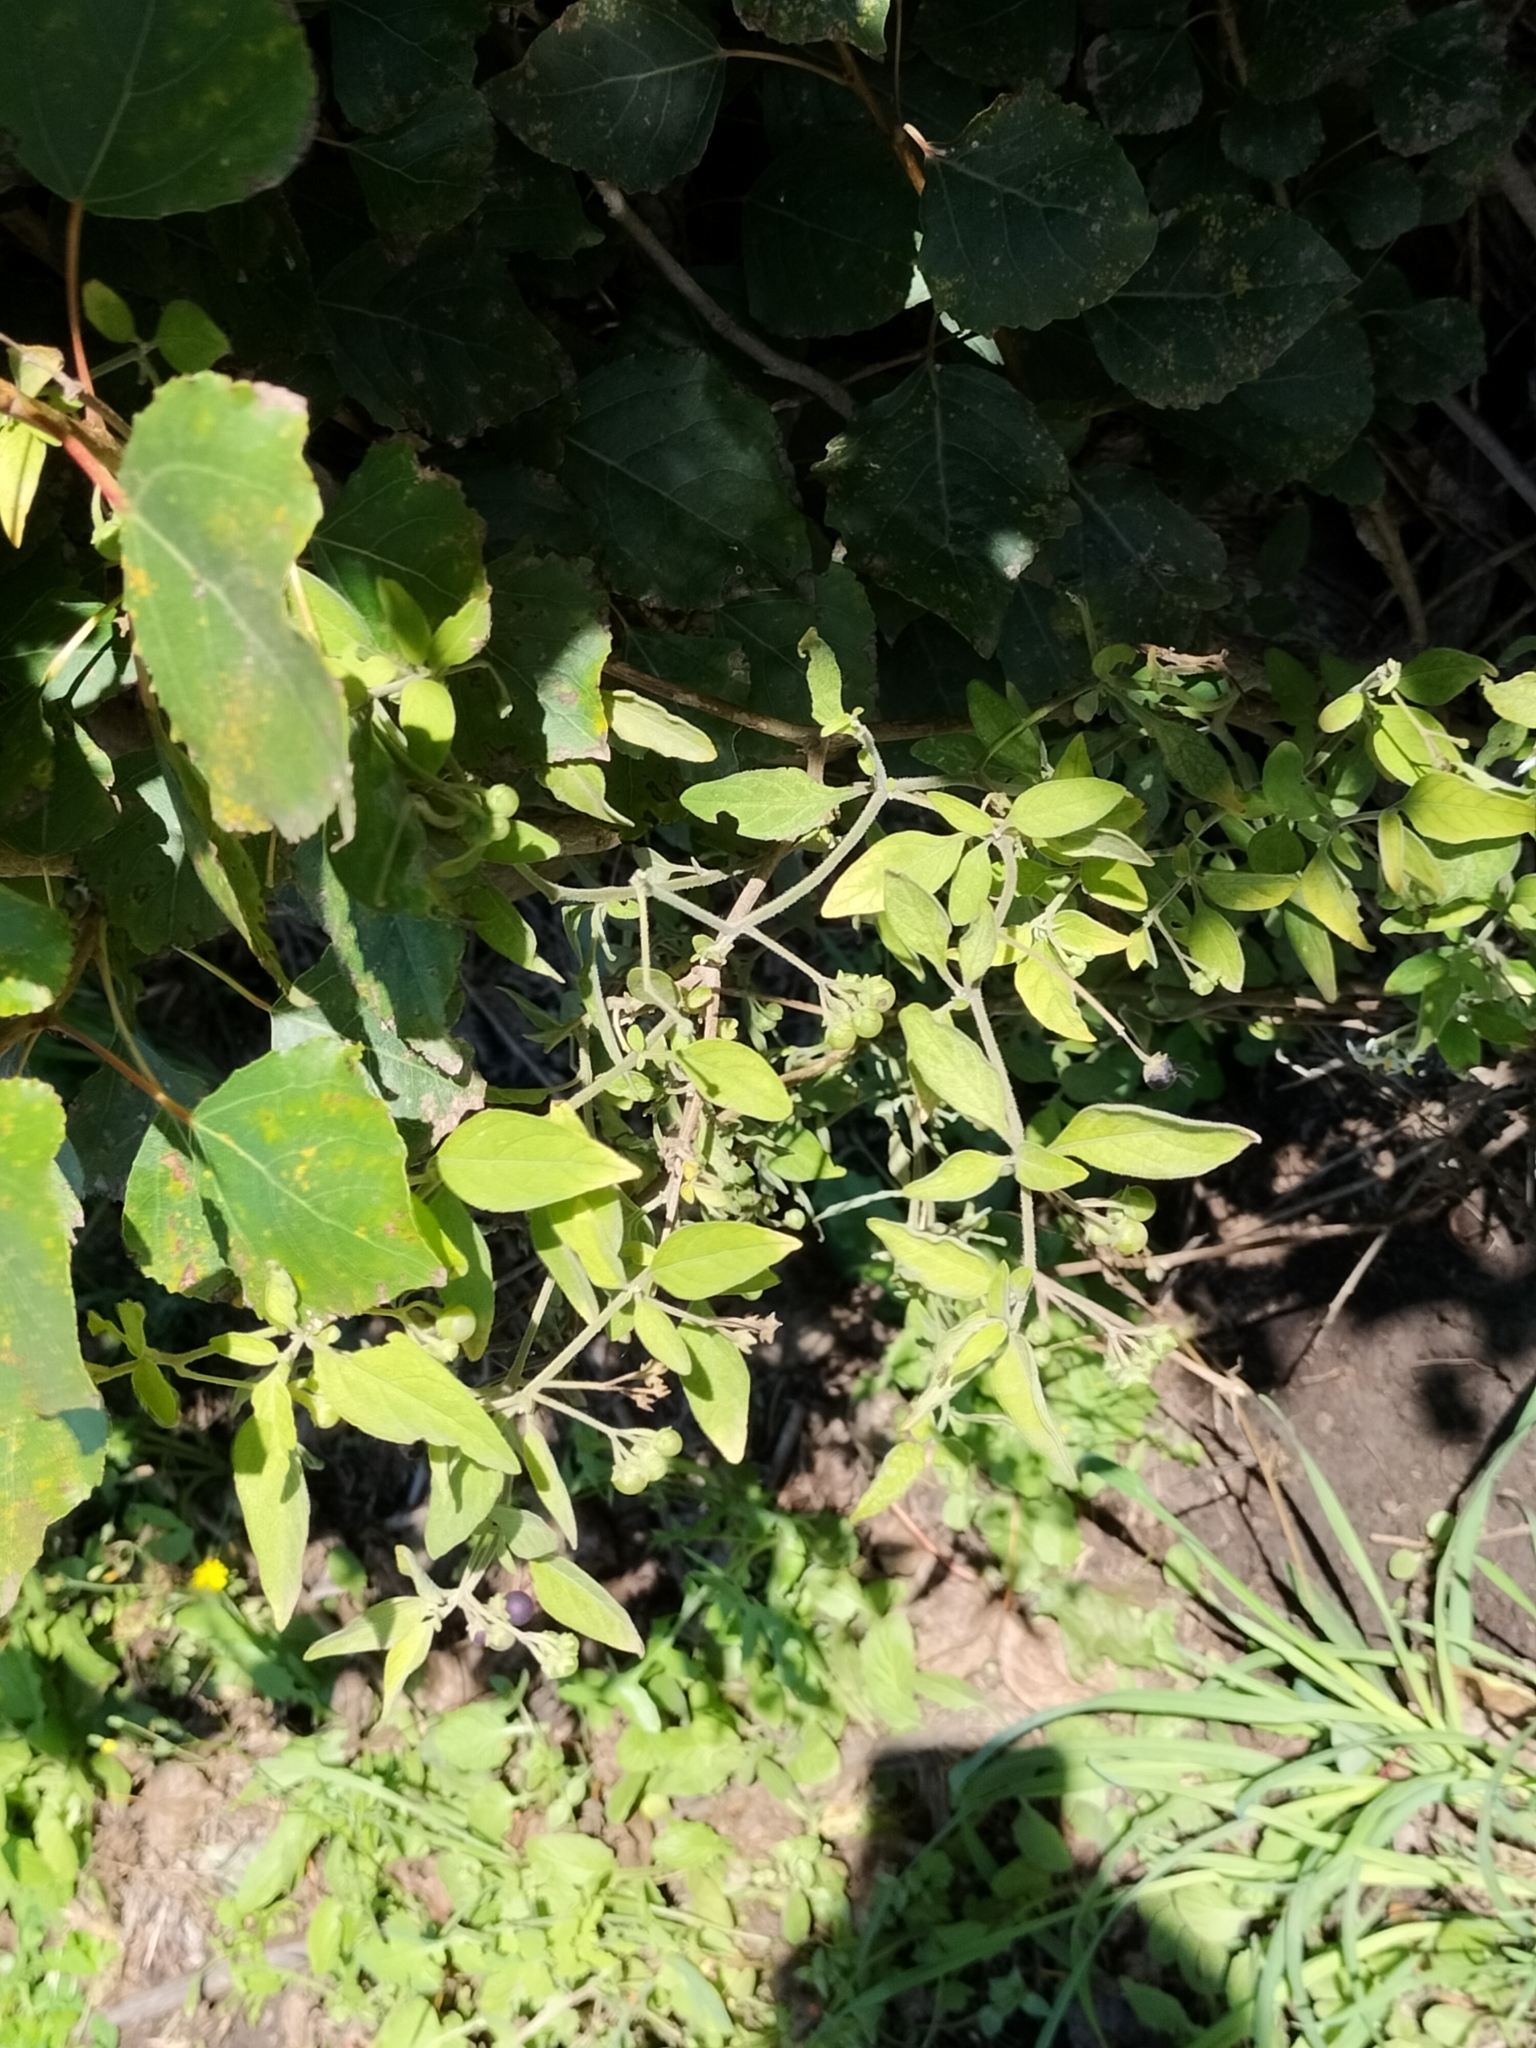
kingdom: Plantae
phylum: Tracheophyta
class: Magnoliopsida
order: Solanales
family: Solanaceae
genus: Solanum
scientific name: Solanum chenopodioides
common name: Tall nightshade
